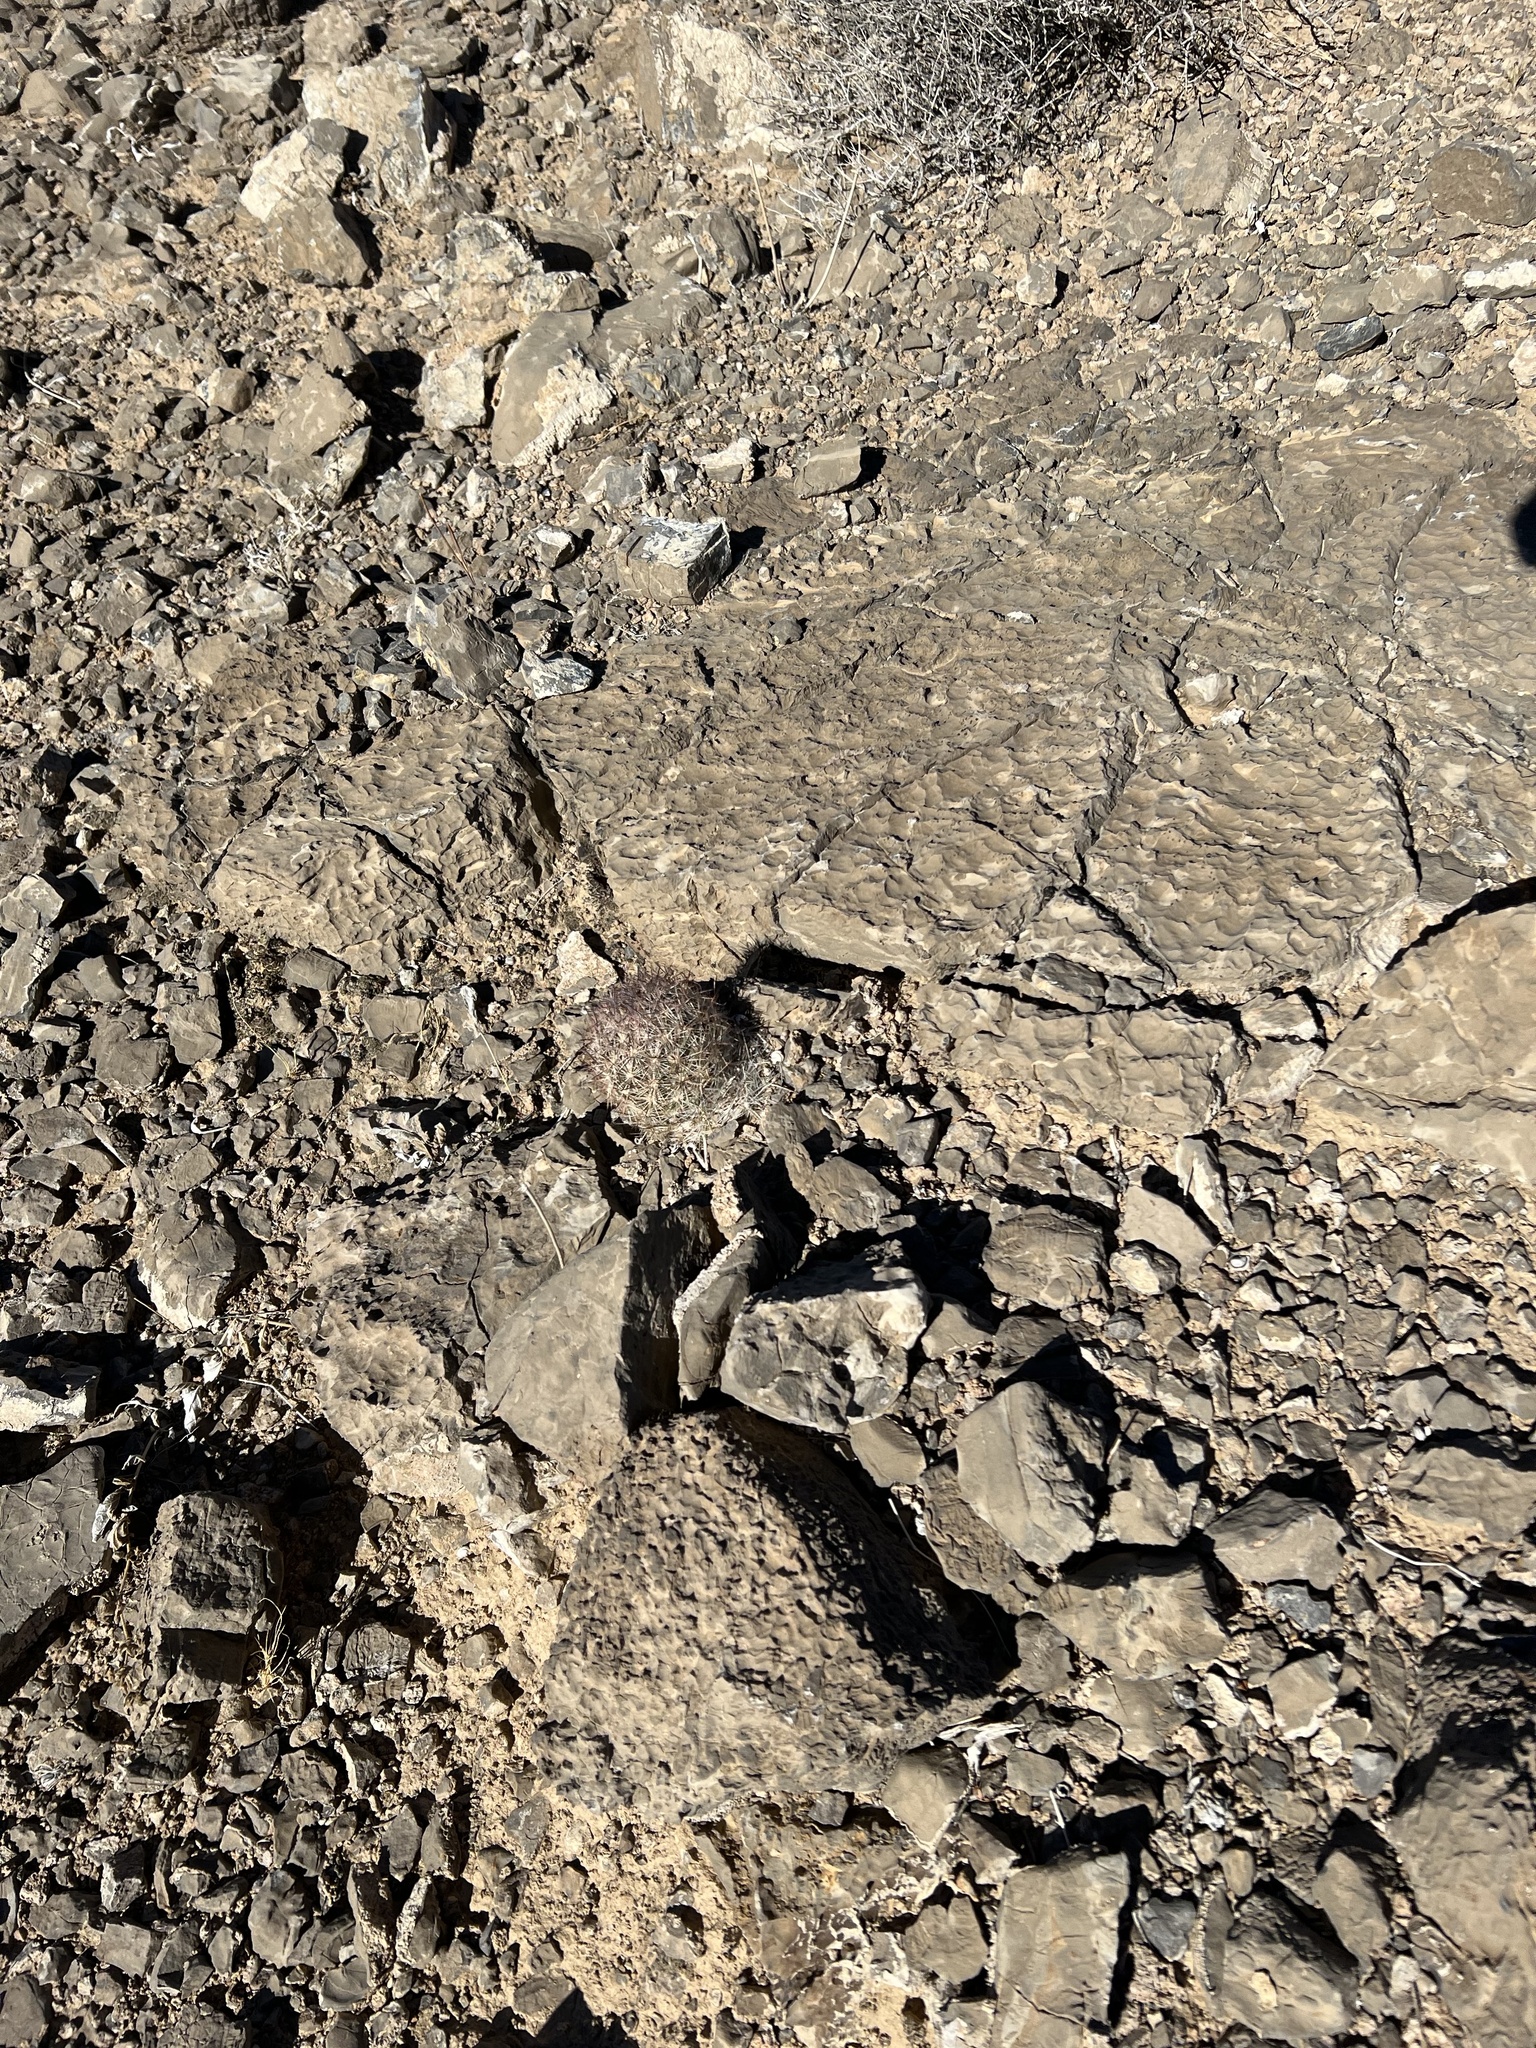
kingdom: Plantae
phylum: Tracheophyta
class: Magnoliopsida
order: Caryophyllales
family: Cactaceae
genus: Pelecyphora
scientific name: Pelecyphora dasyacantha
